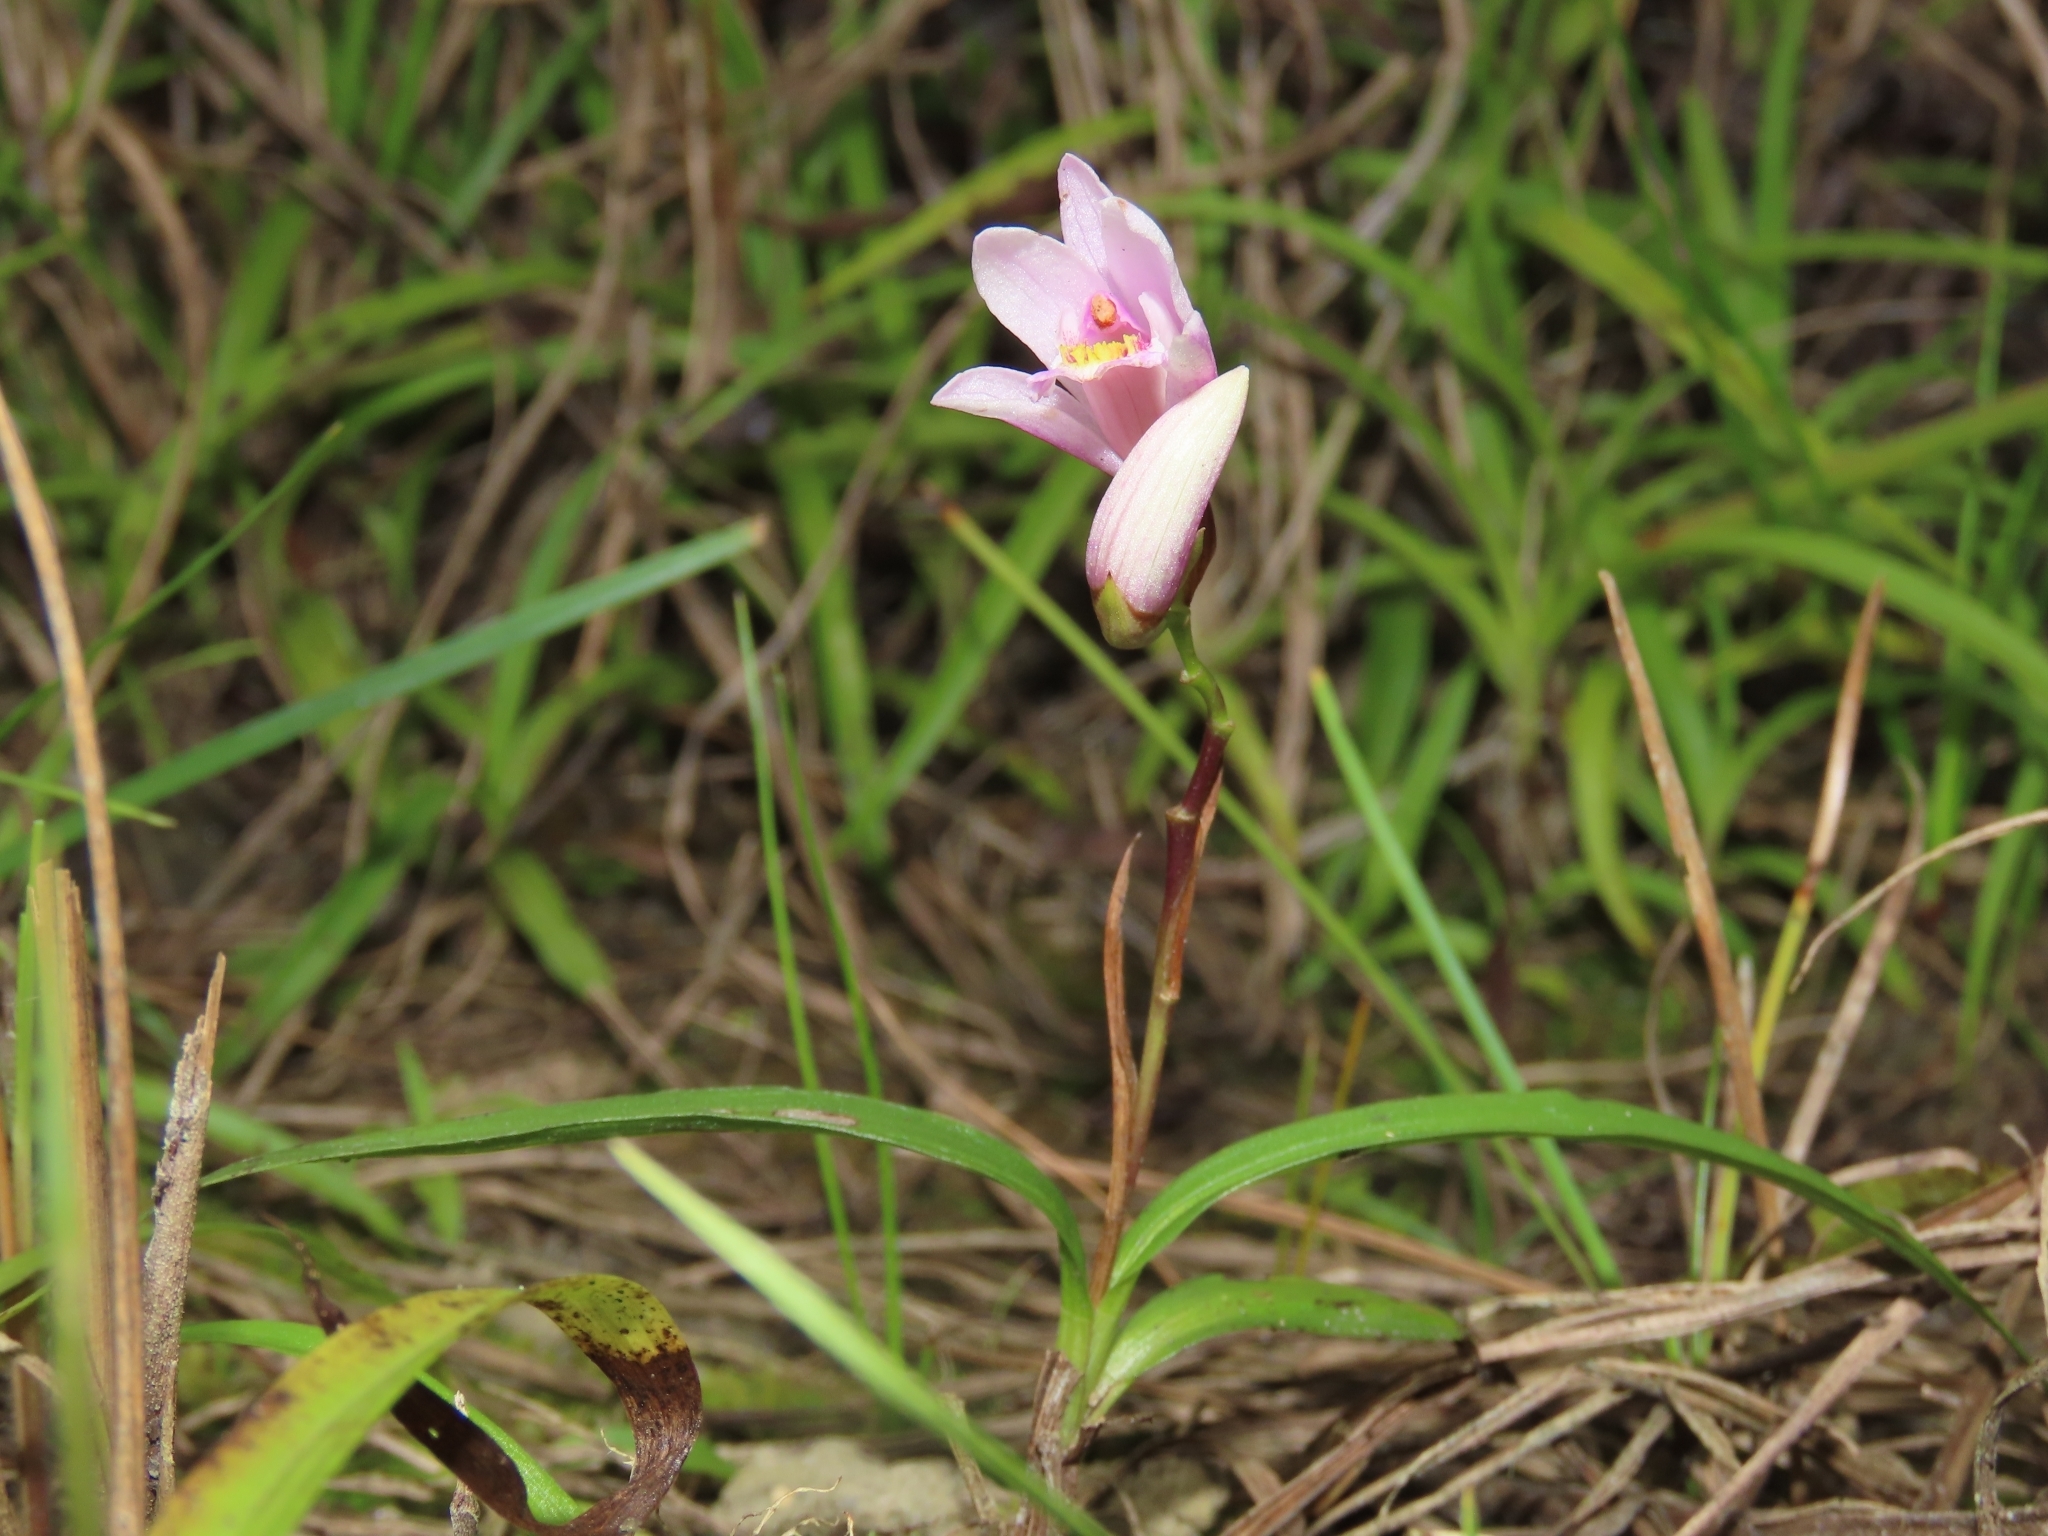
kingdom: Plantae
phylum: Tracheophyta
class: Liliopsida
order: Asparagales
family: Orchidaceae
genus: Bletilla
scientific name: Bletilla formosana
